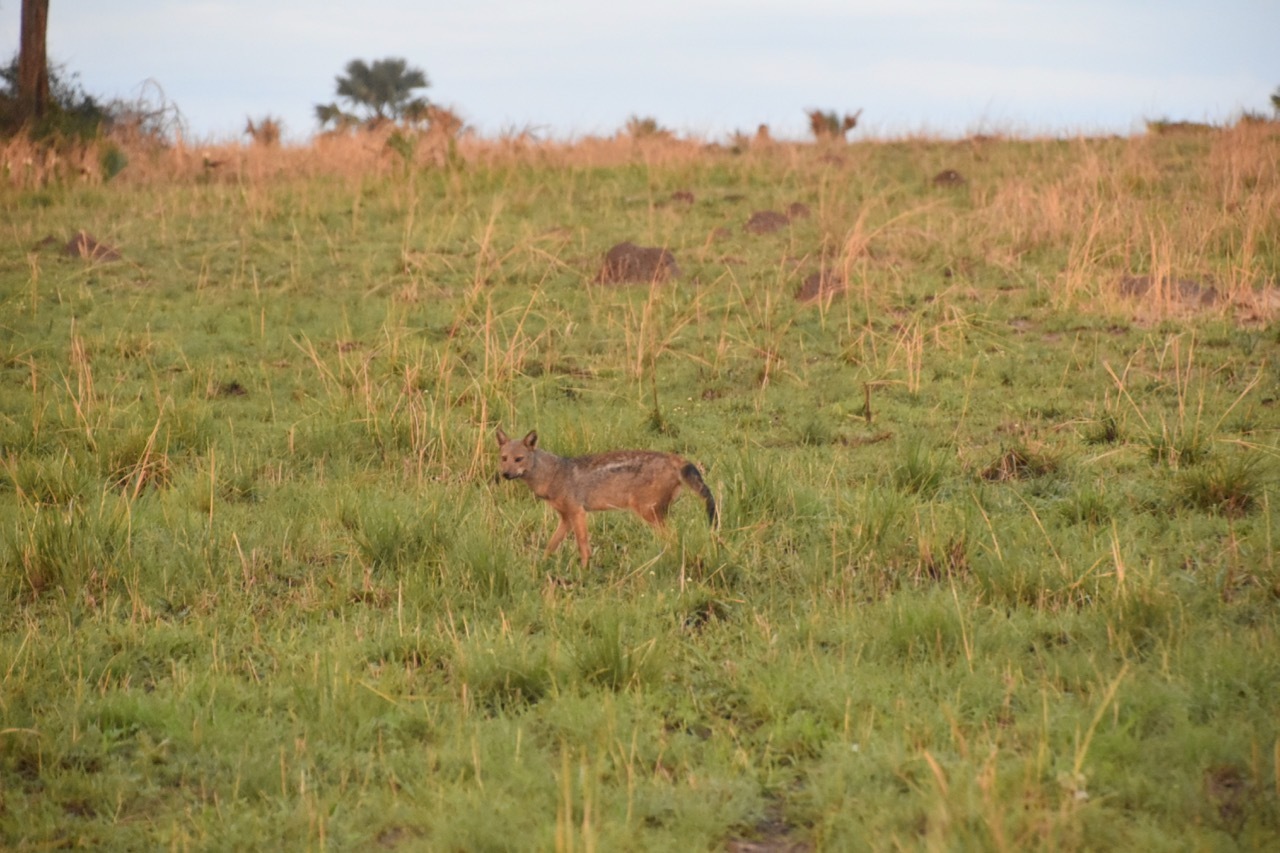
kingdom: Animalia
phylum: Chordata
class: Mammalia
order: Carnivora
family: Canidae
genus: Lupulella
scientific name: Lupulella
